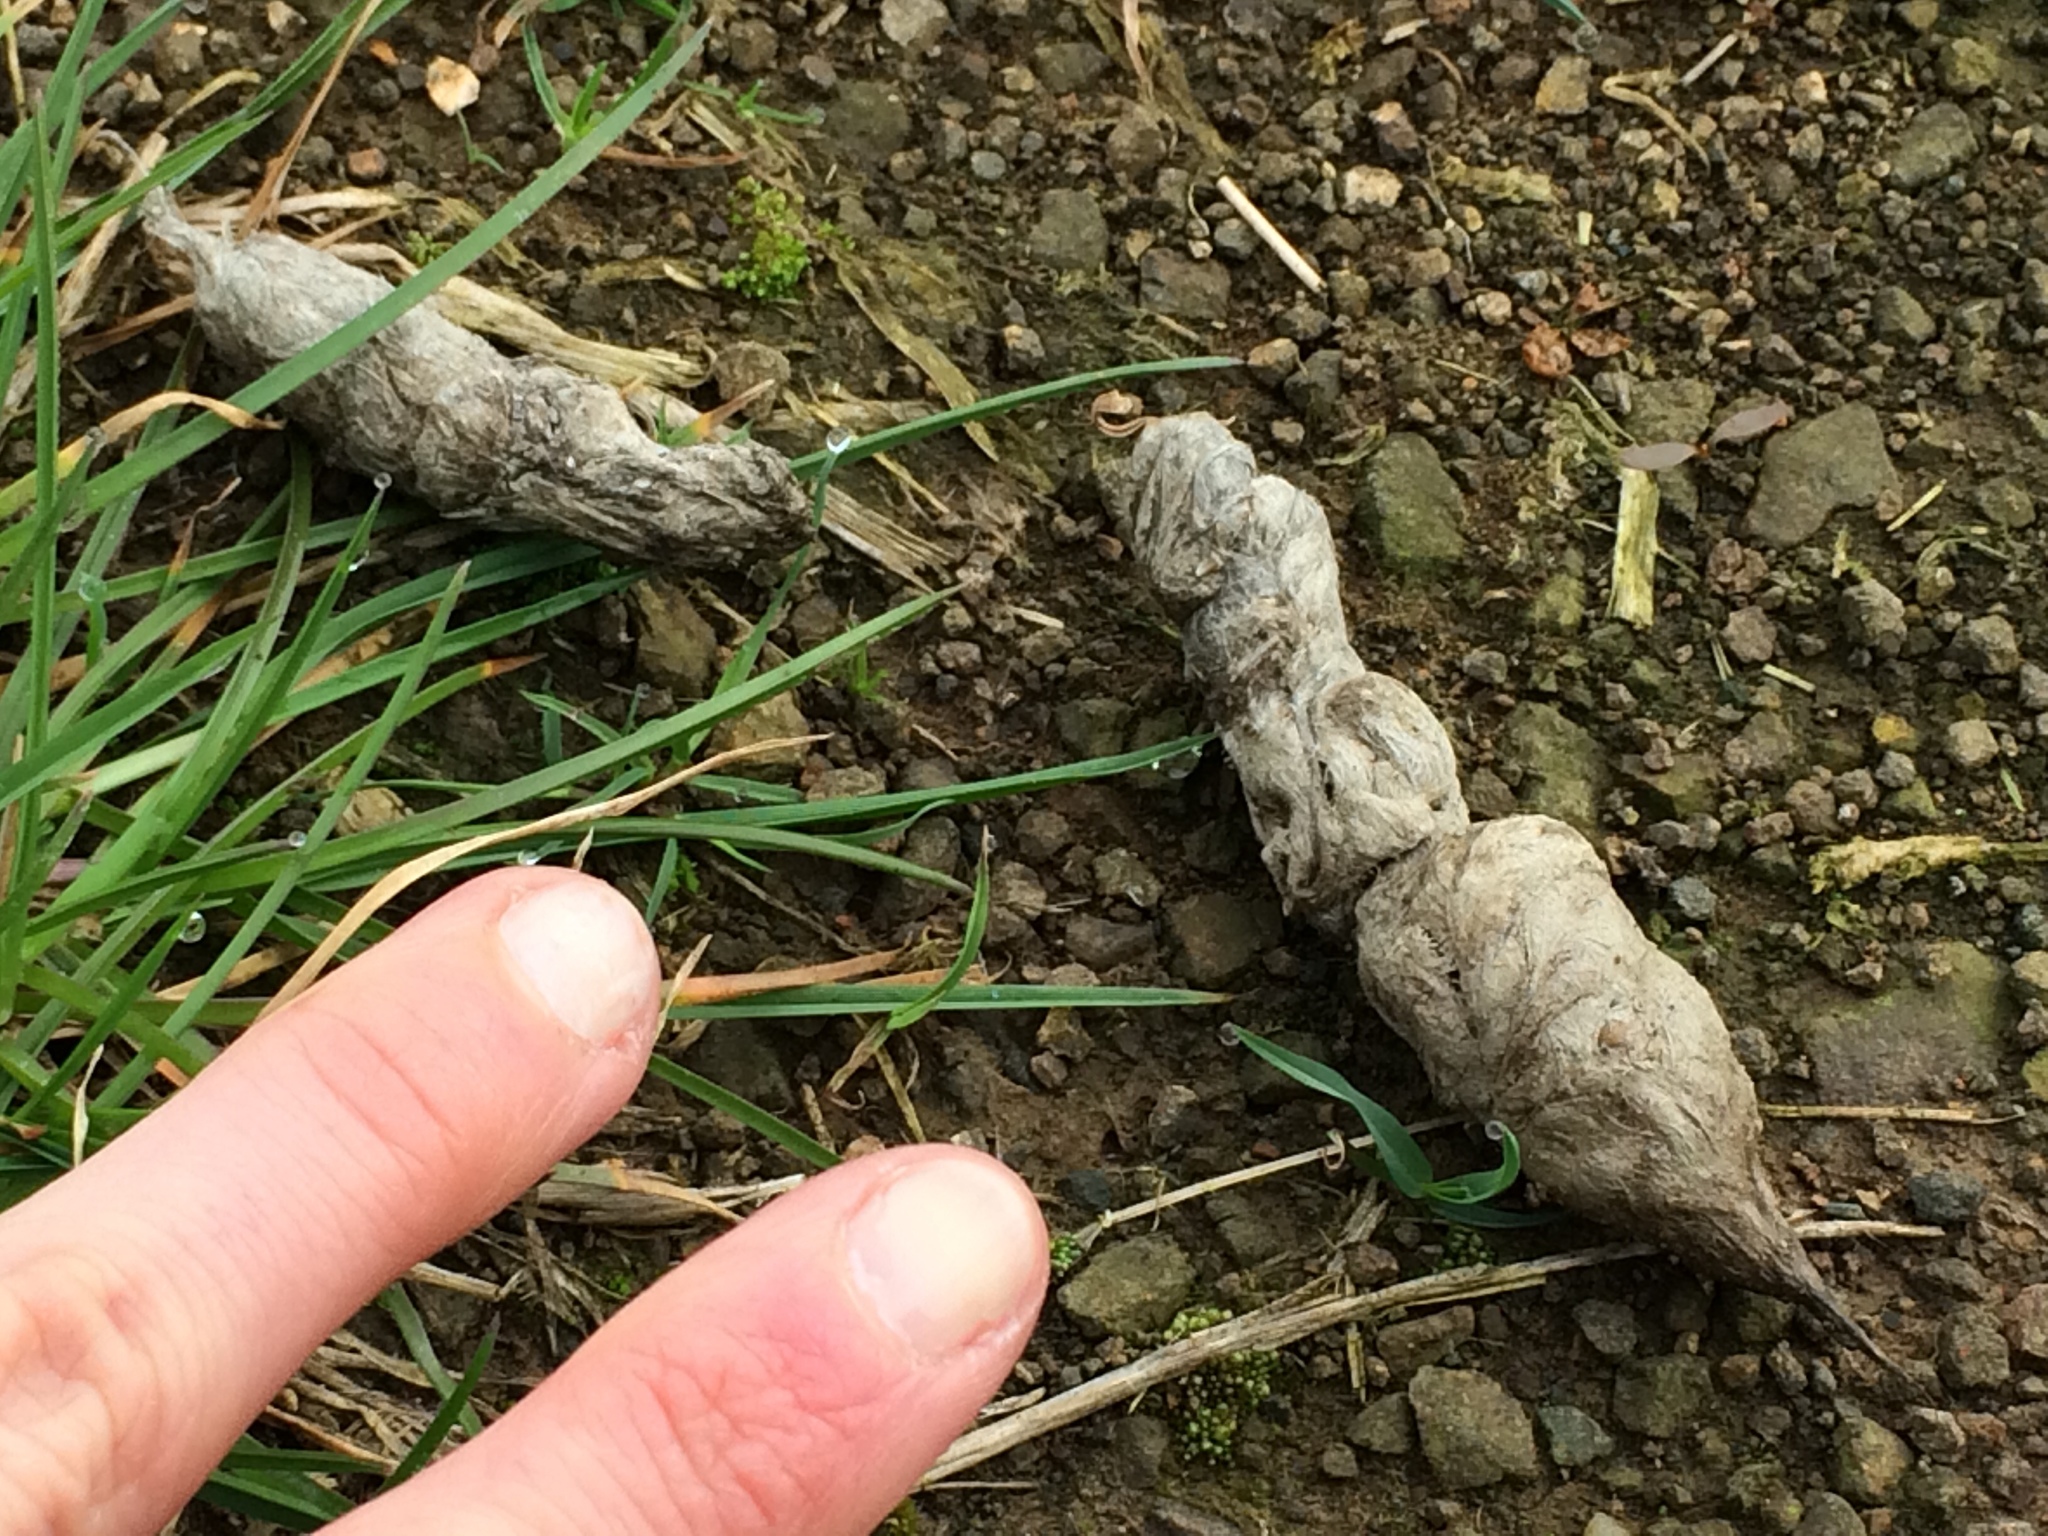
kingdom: Animalia
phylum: Chordata
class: Mammalia
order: Carnivora
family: Felidae
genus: Felis
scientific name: Felis catus
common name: Domestic cat
